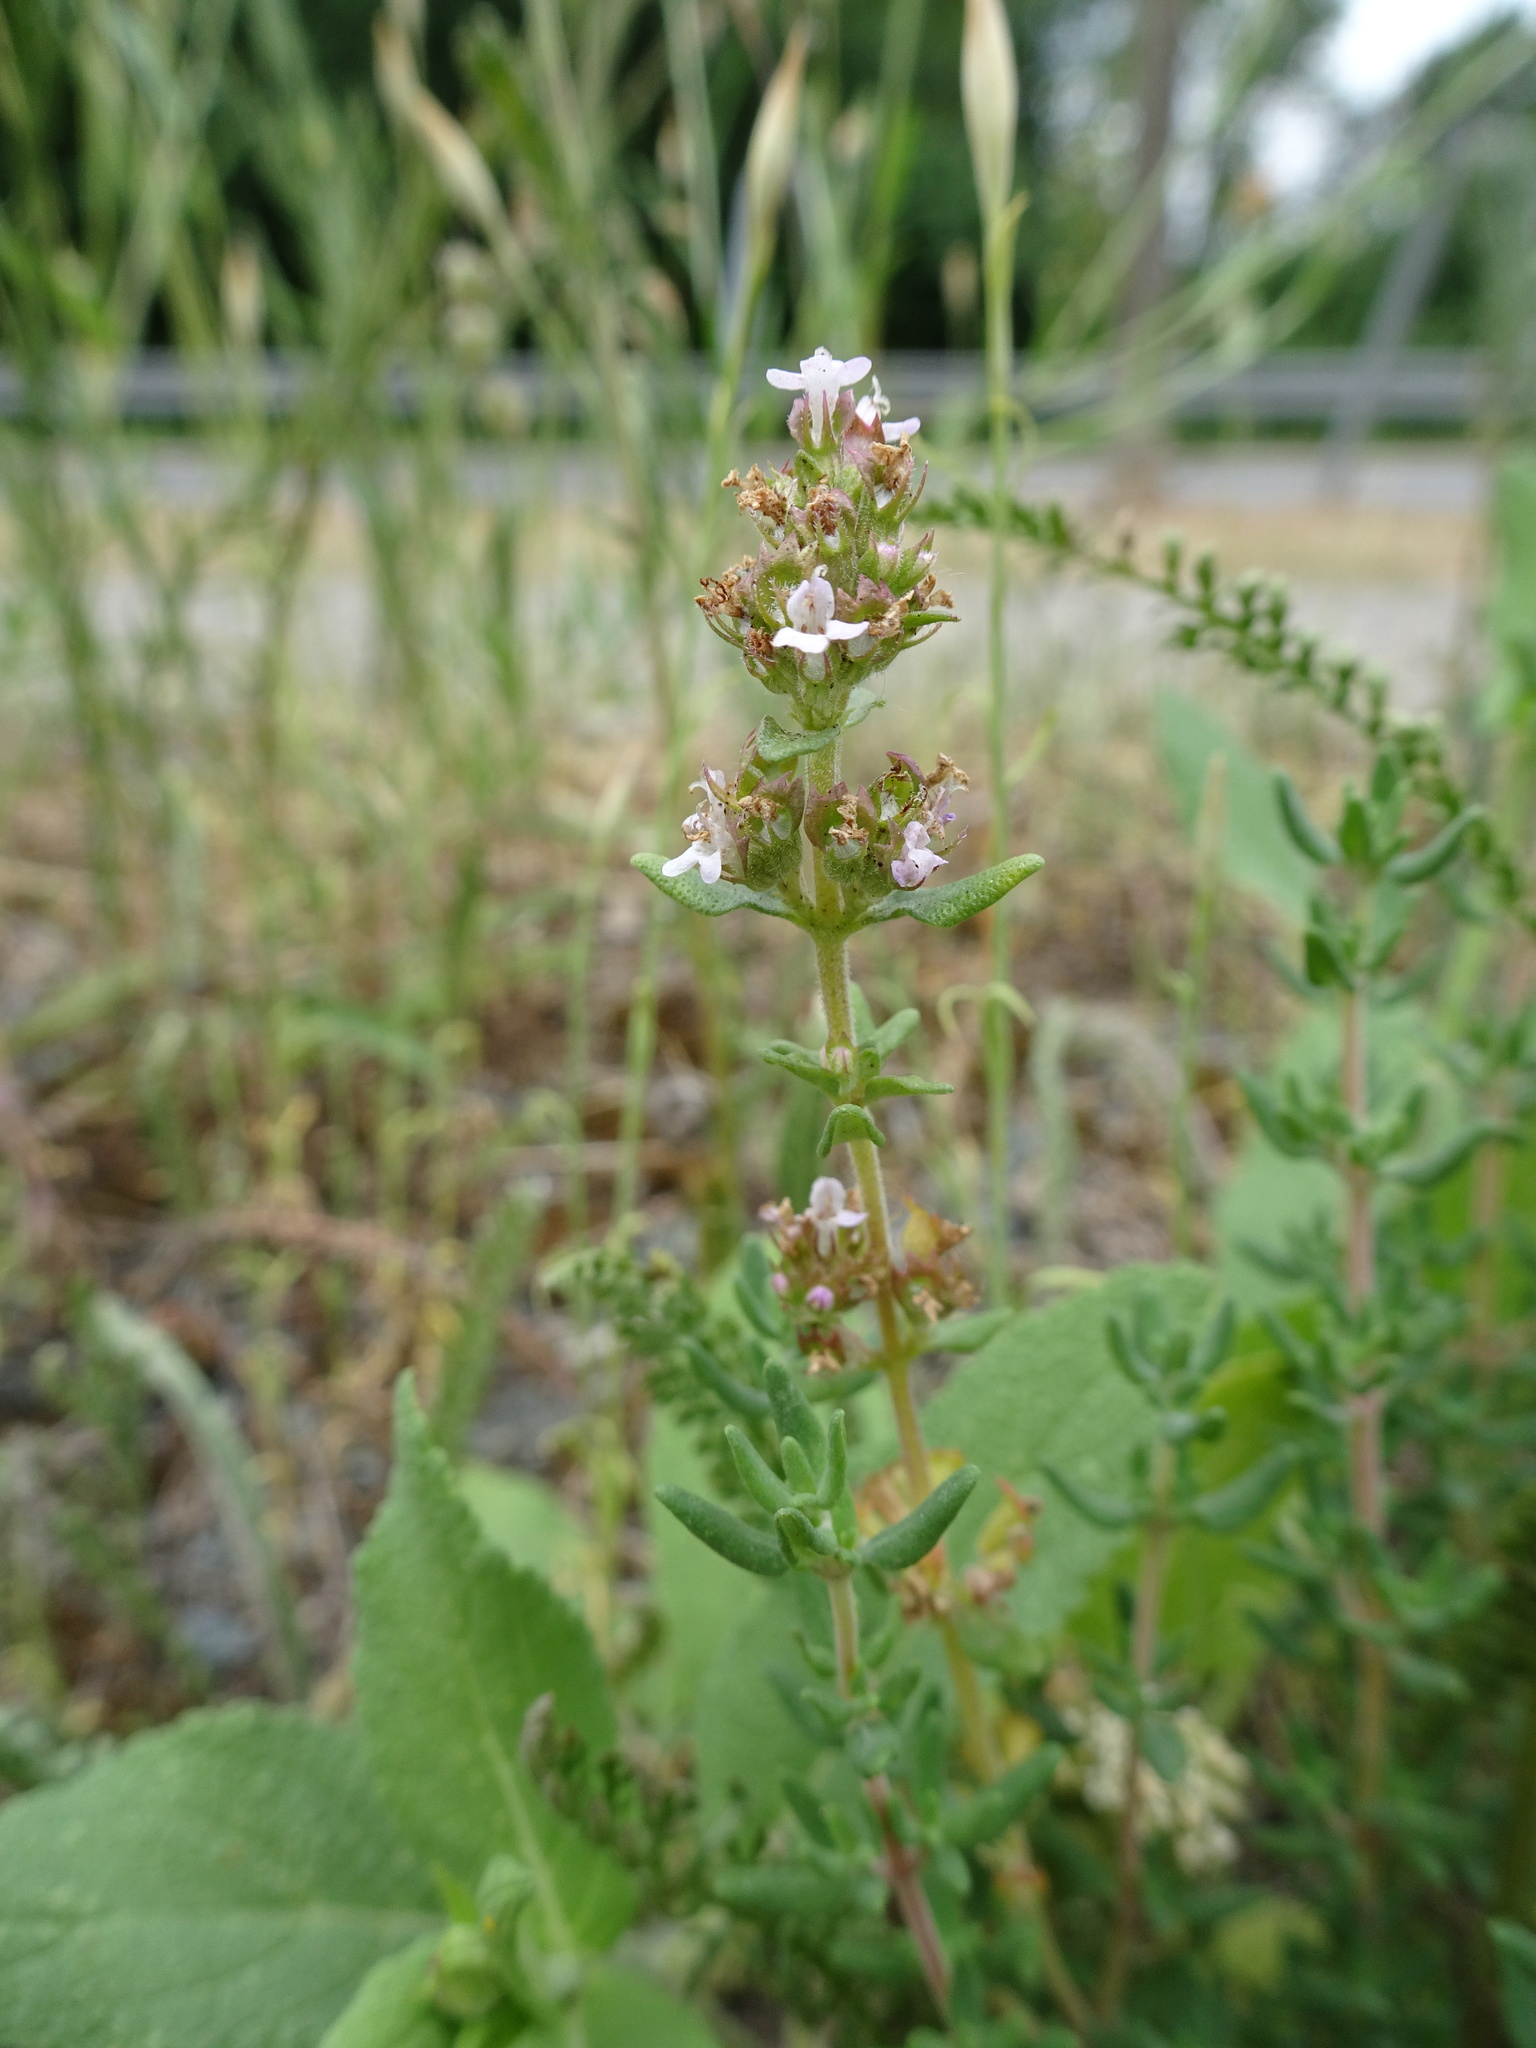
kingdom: Plantae
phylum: Tracheophyta
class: Magnoliopsida
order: Lamiales
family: Lamiaceae
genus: Thymus
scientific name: Thymus vulgaris
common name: Garden thyme
